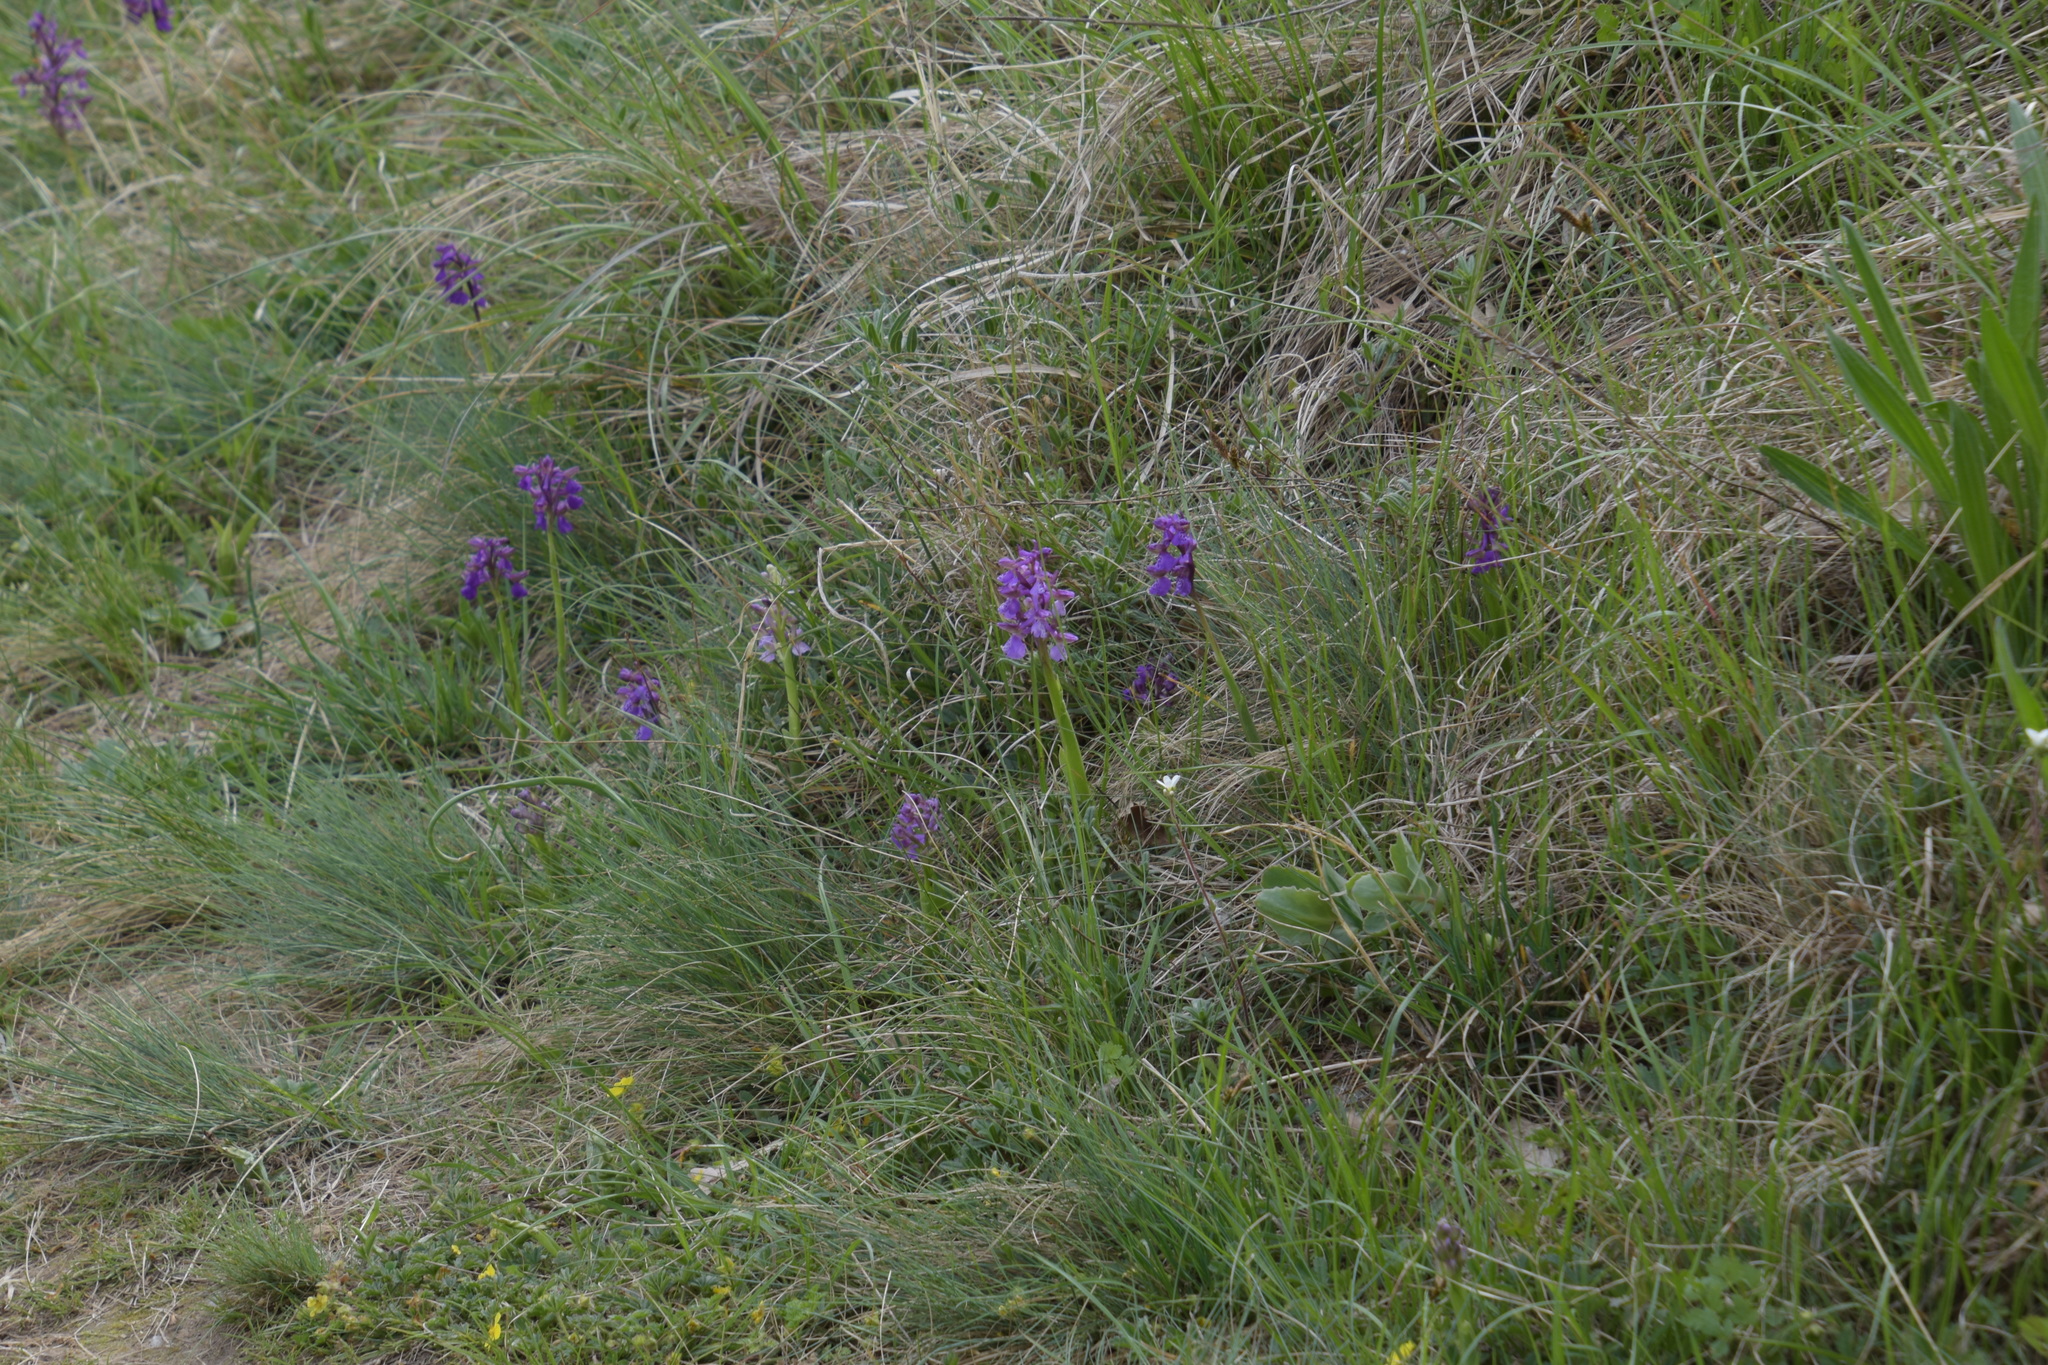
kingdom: Plantae
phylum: Tracheophyta
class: Liliopsida
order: Asparagales
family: Orchidaceae
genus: Anacamptis
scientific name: Anacamptis morio
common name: Green-winged orchid
